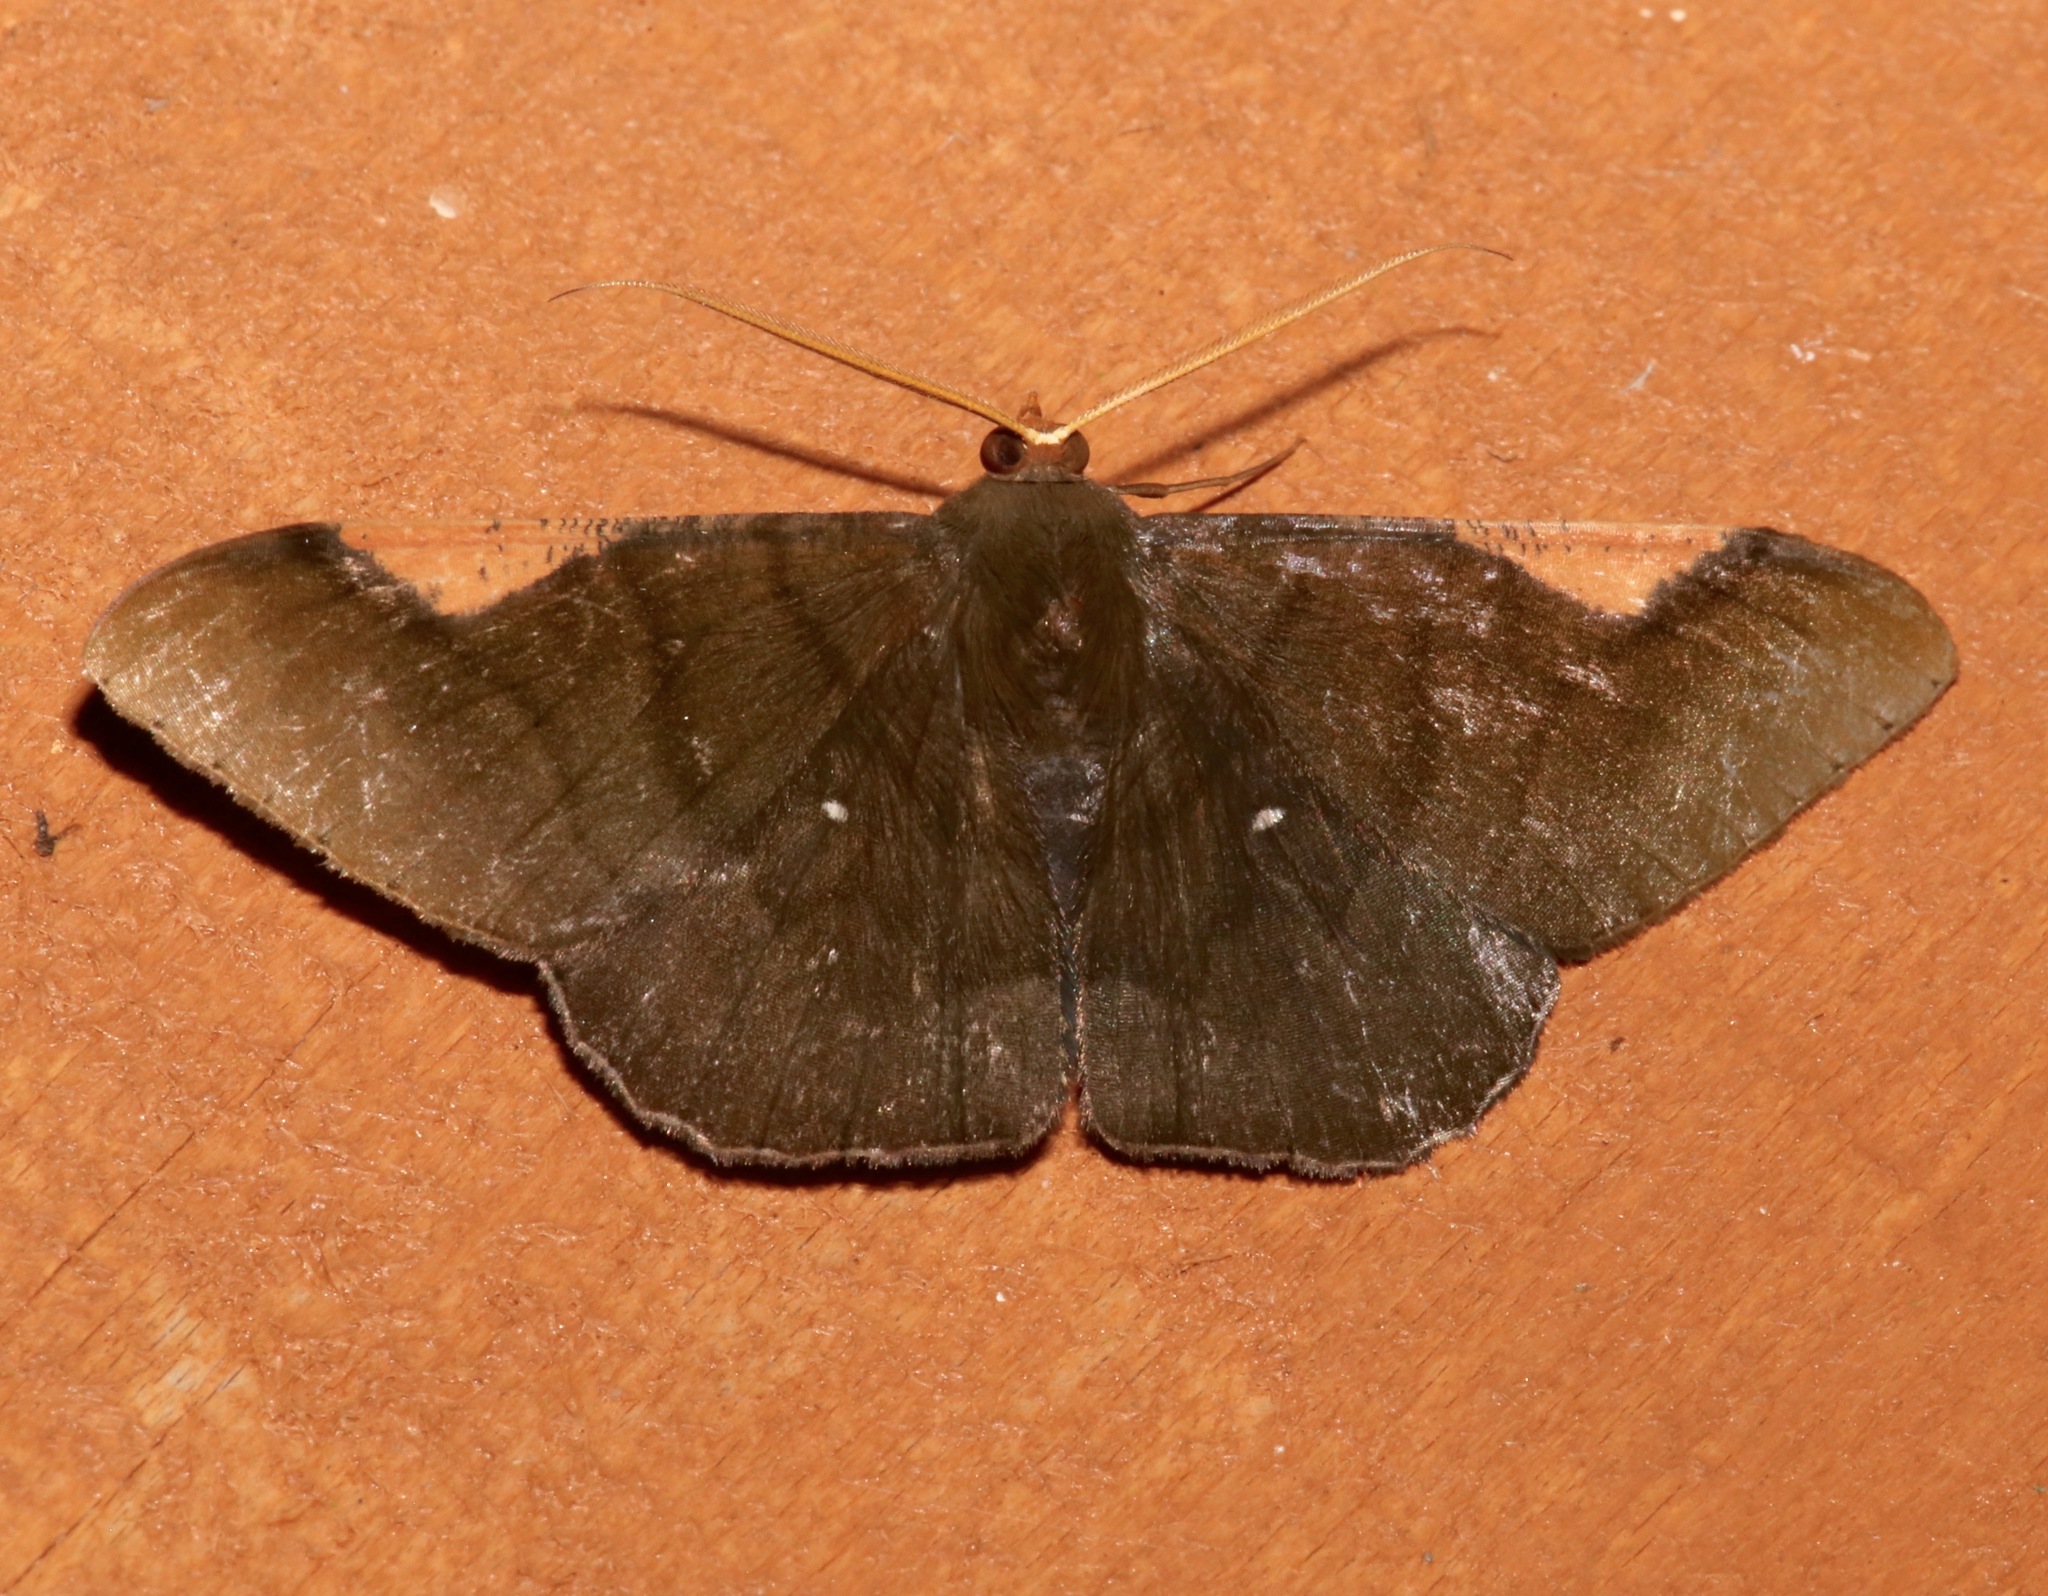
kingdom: Animalia
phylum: Arthropoda
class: Insecta
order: Lepidoptera
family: Geometridae
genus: Sphacelodes
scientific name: Sphacelodes vulneraria
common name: Looper moth
